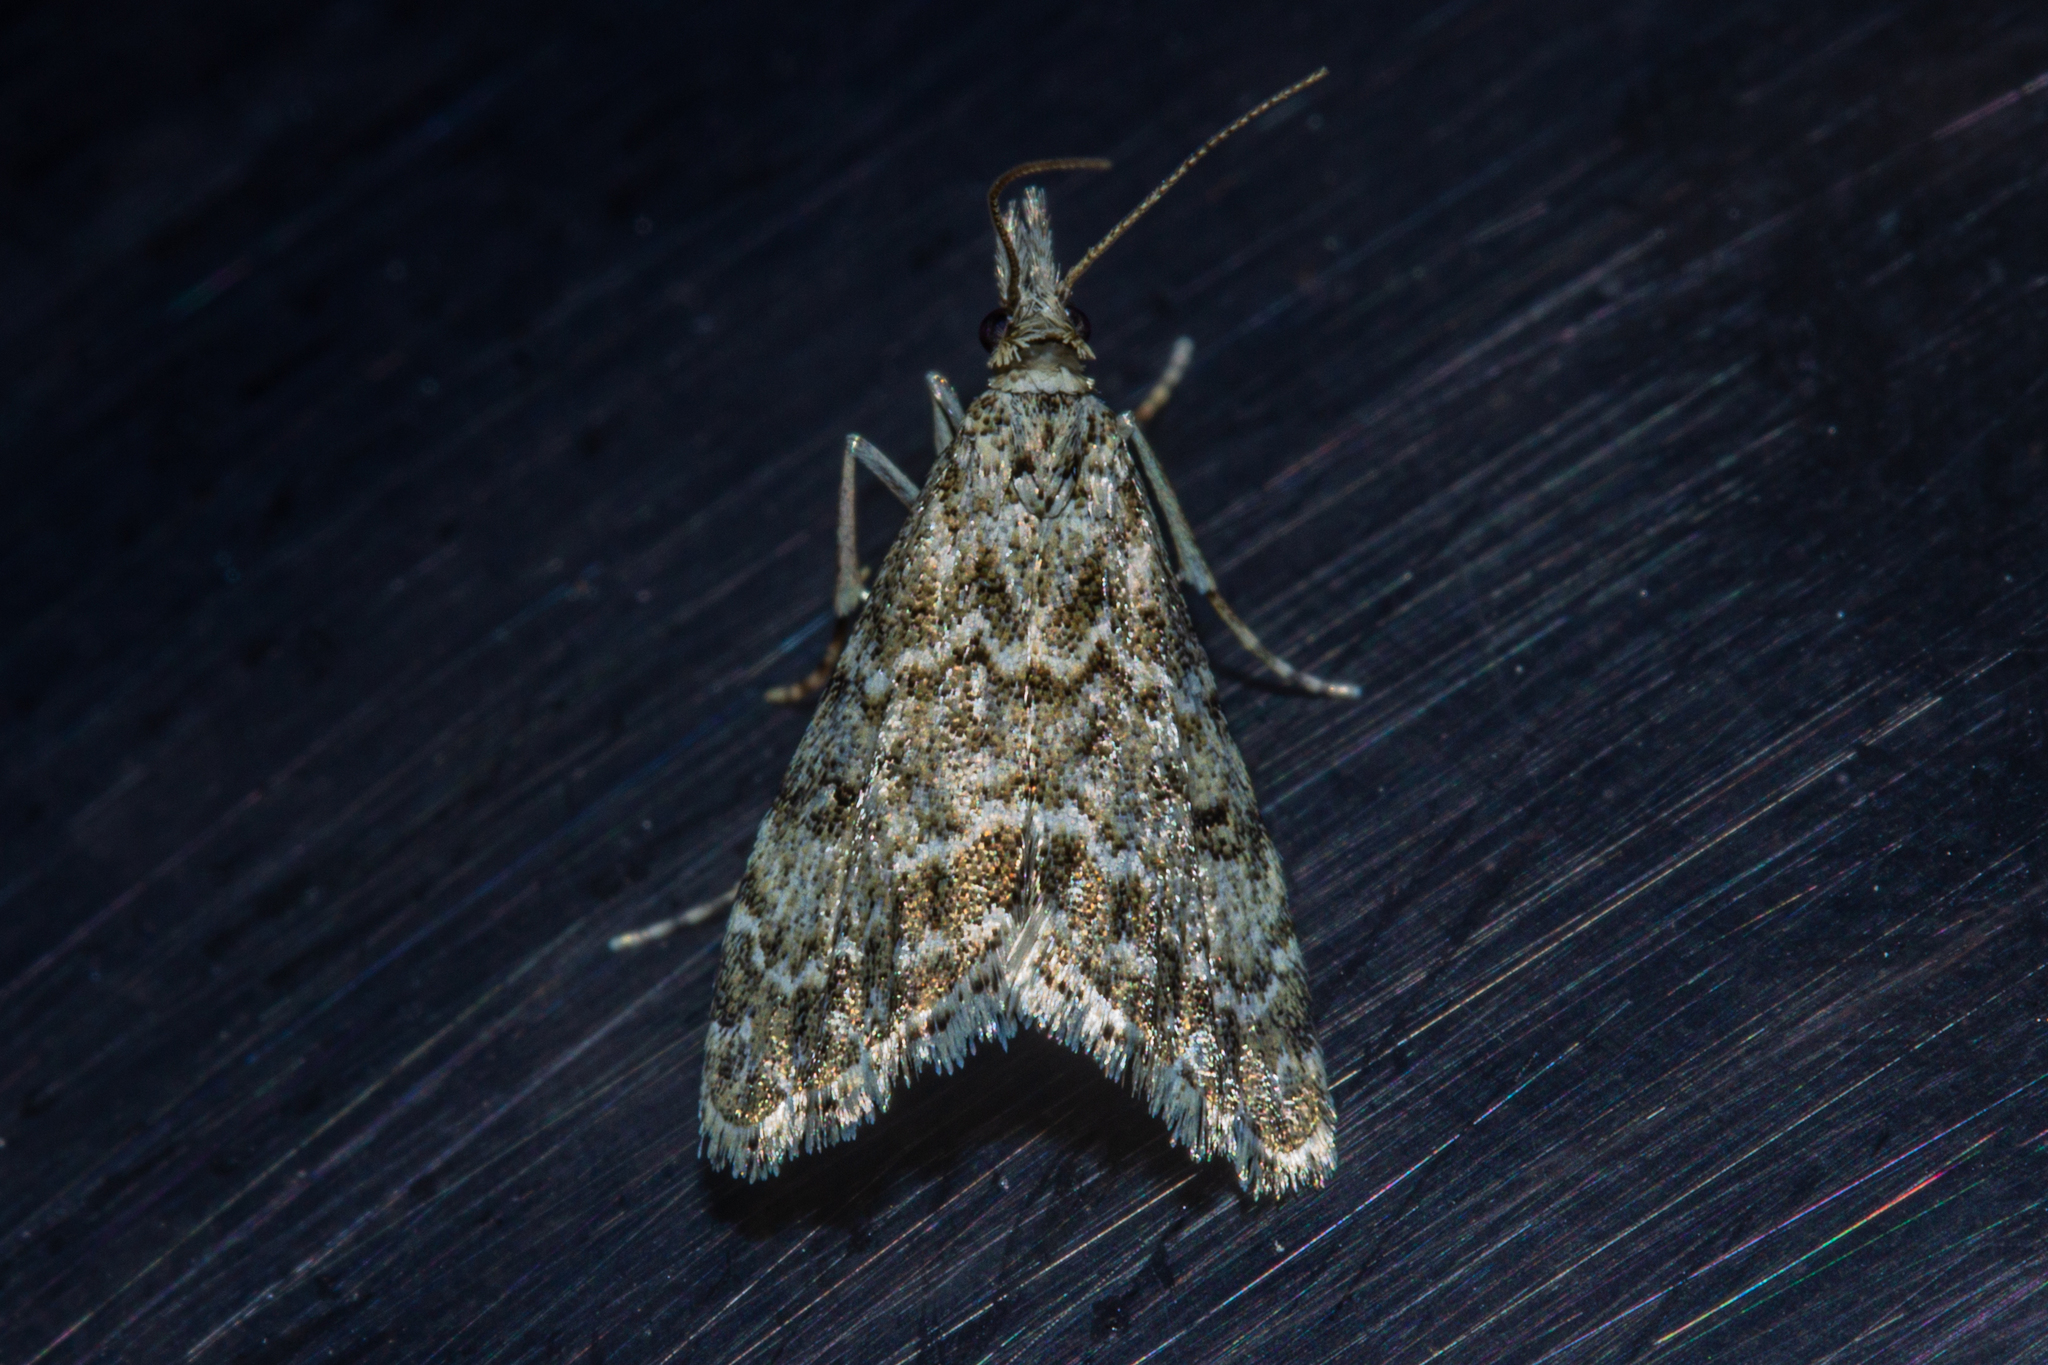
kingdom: Animalia
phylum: Arthropoda
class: Insecta
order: Lepidoptera
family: Crambidae
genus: Glaucocharis
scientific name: Glaucocharis elaina
